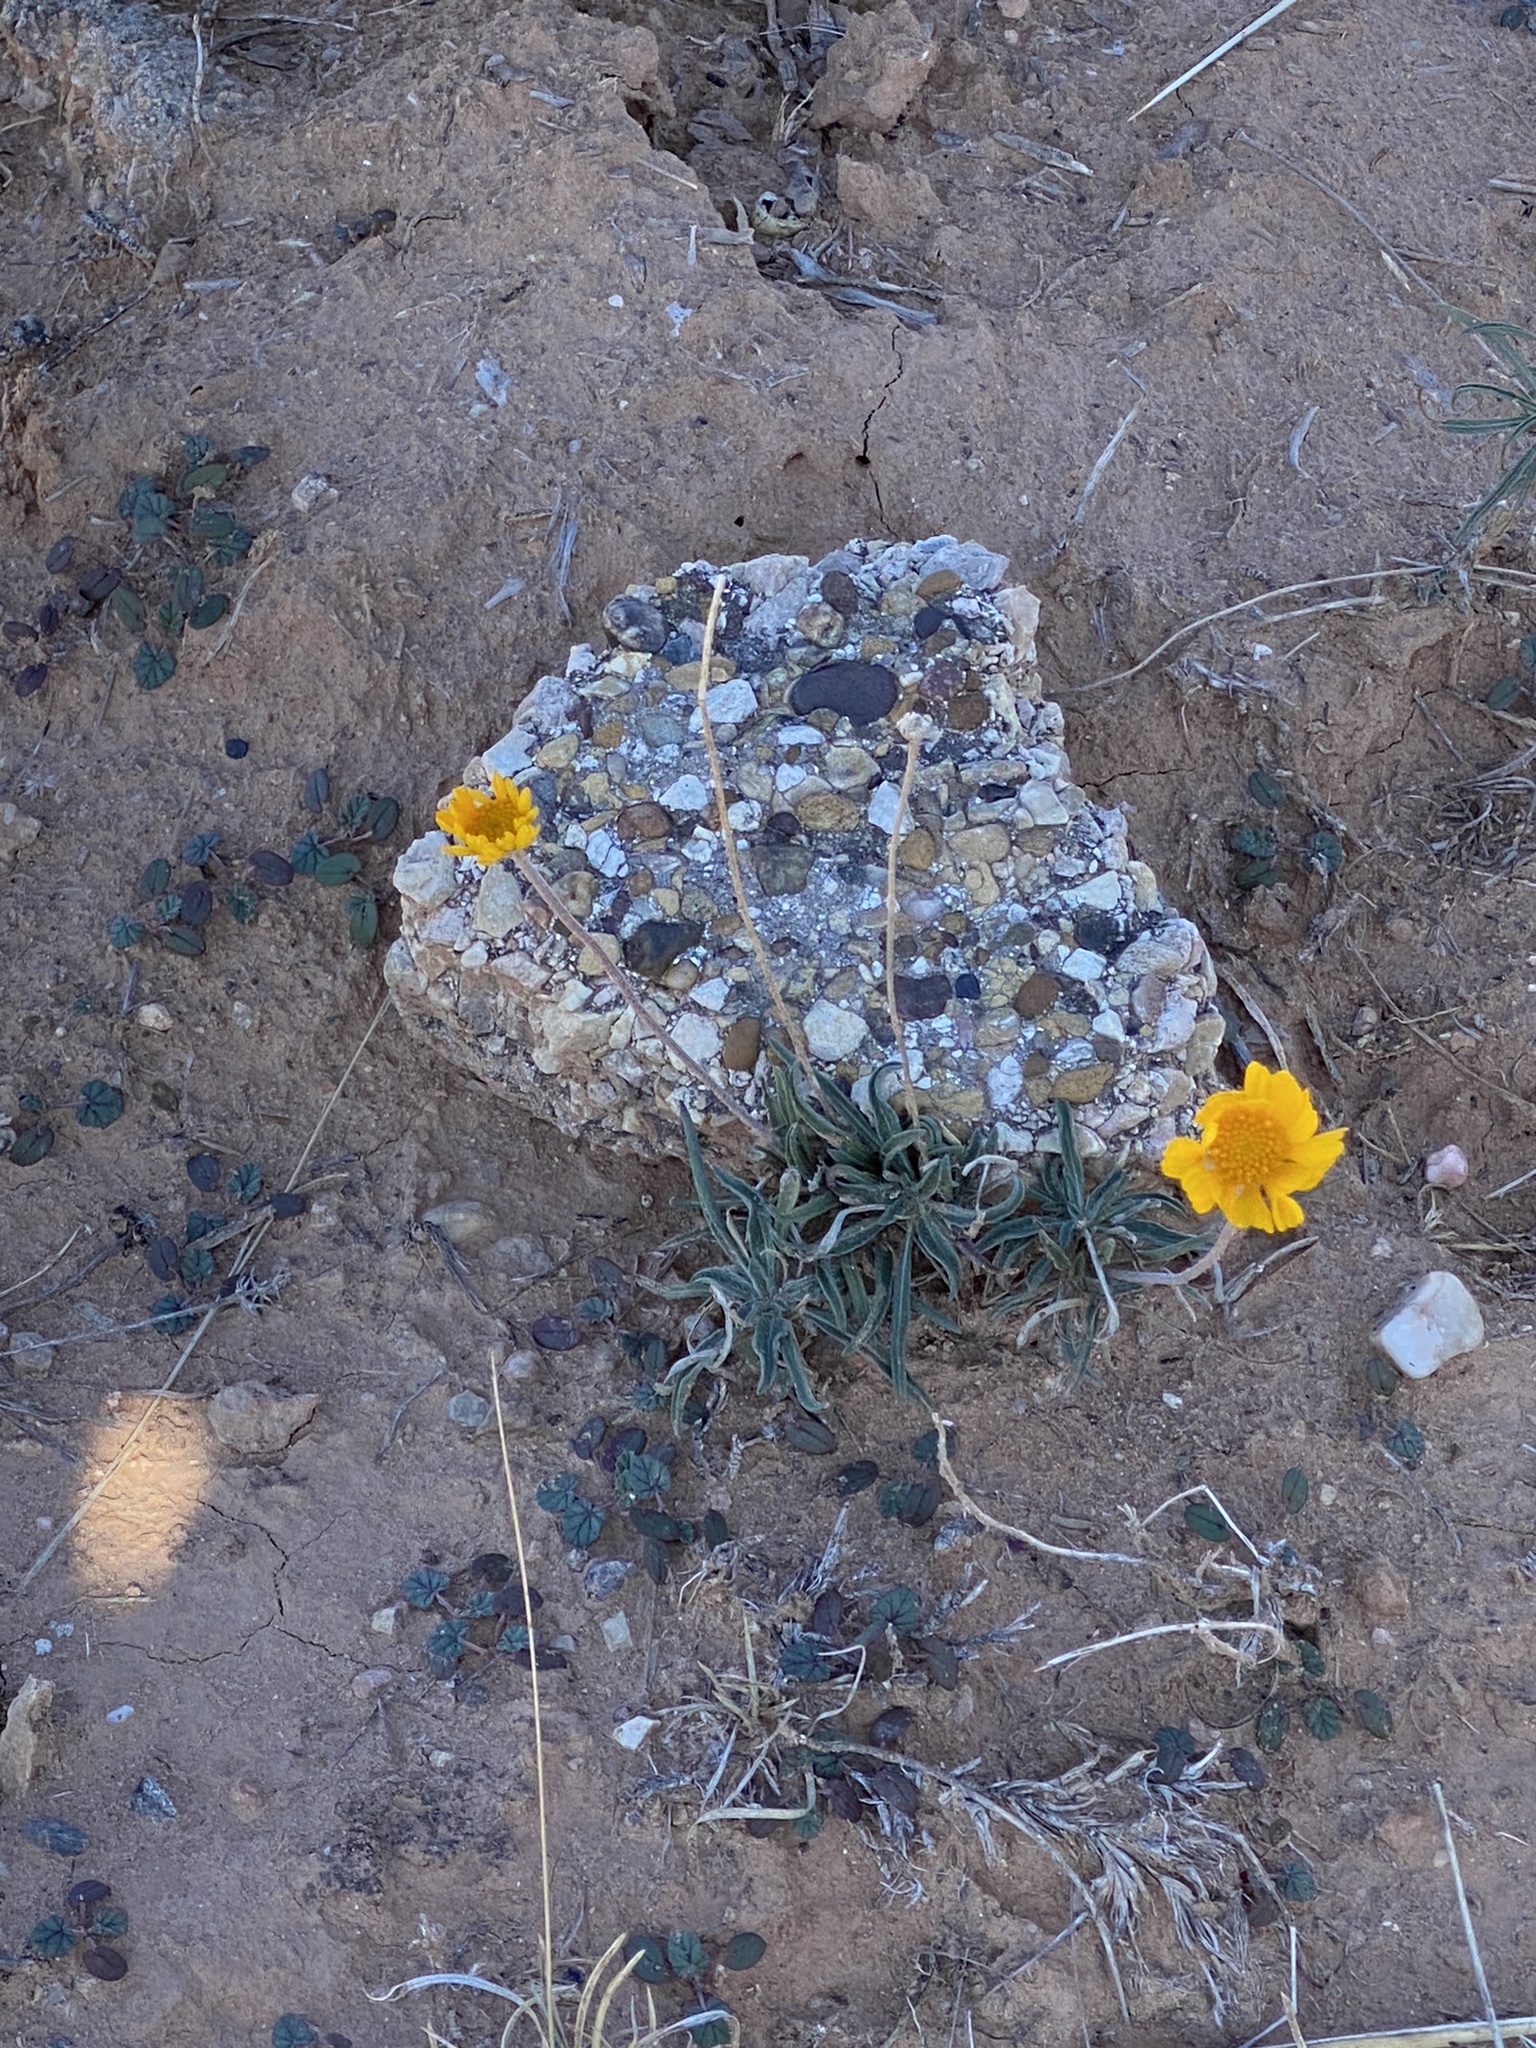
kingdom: Plantae
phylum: Tracheophyta
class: Magnoliopsida
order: Asterales
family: Asteraceae
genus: Tetraneuris
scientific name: Tetraneuris scaposa
